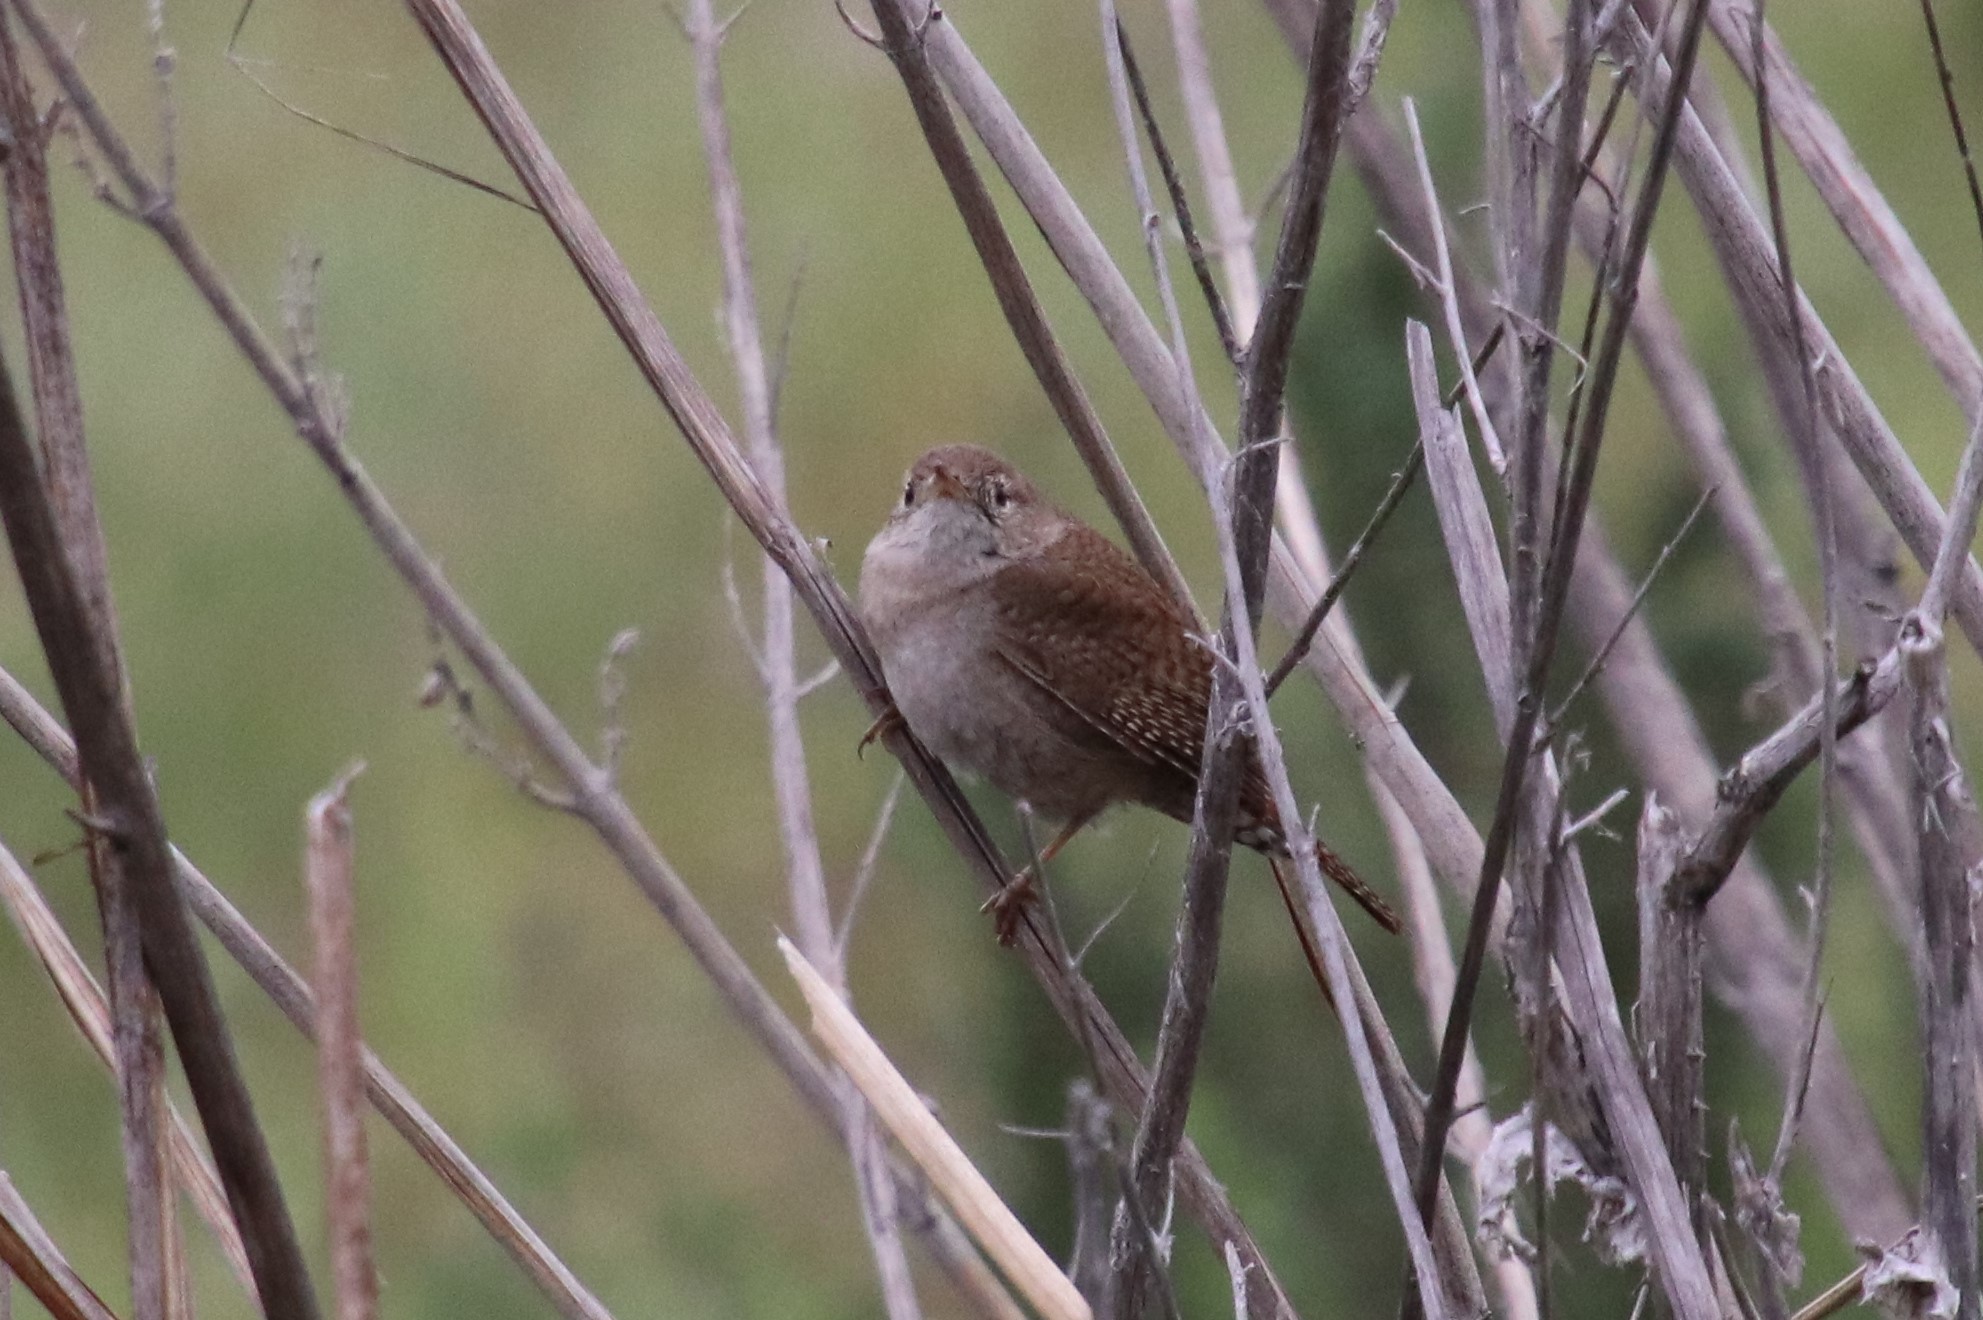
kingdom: Animalia
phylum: Chordata
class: Aves
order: Passeriformes
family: Troglodytidae
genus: Troglodytes
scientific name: Troglodytes aedon
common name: House wren
